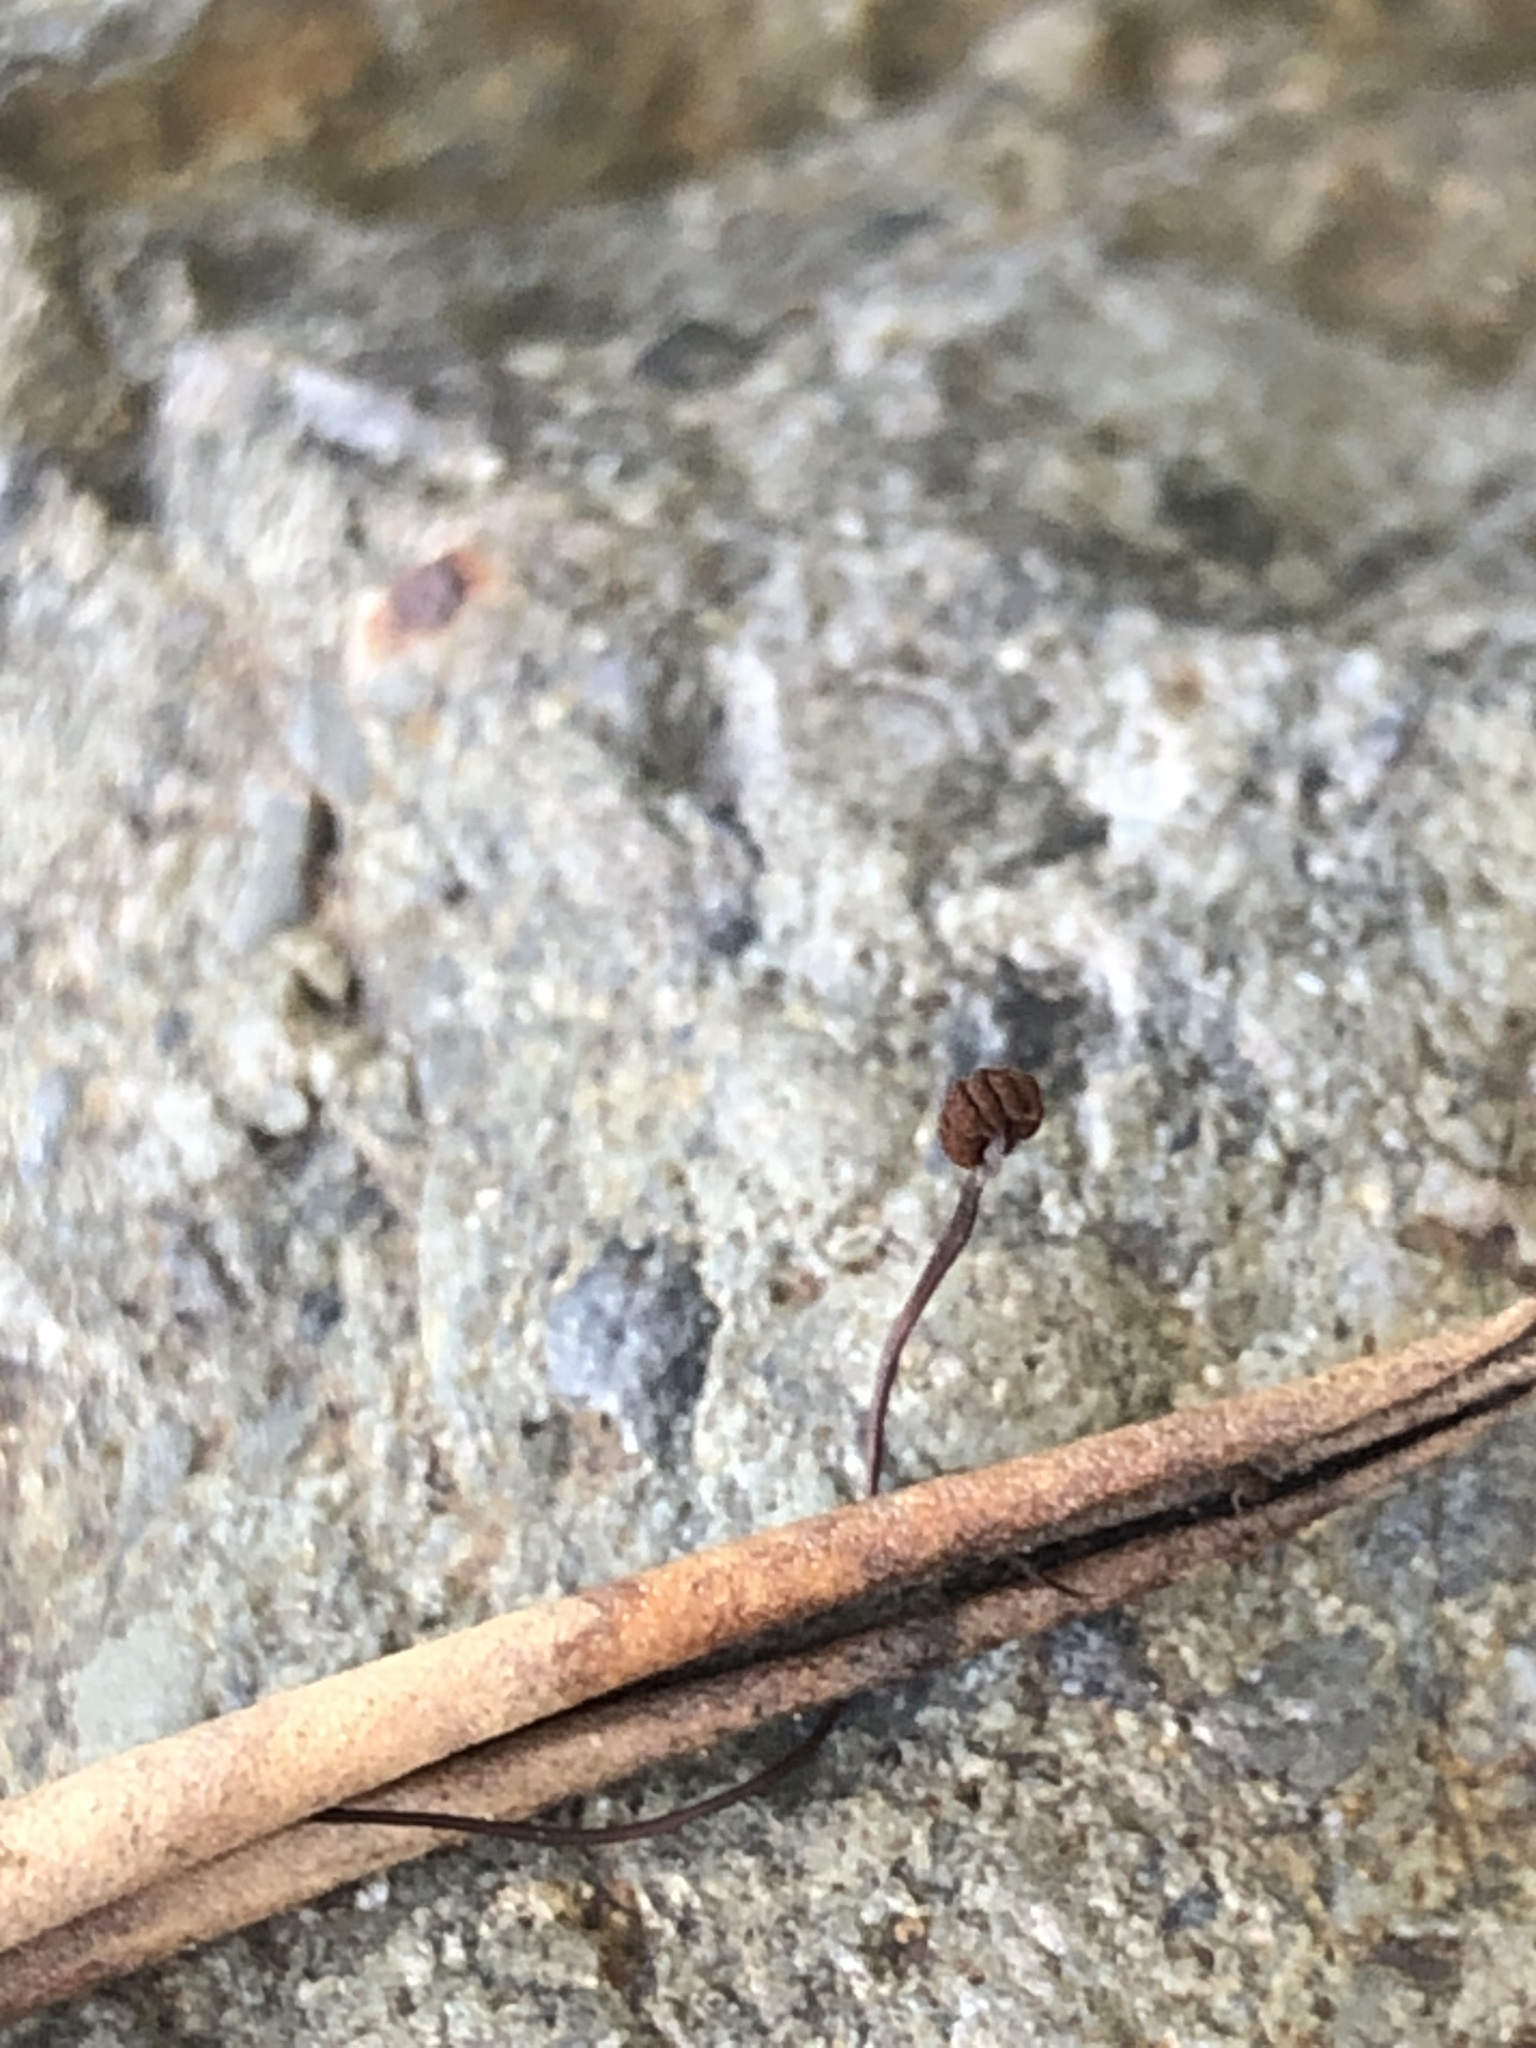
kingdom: Fungi
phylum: Basidiomycota
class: Agaricomycetes
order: Agaricales
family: Physalacriaceae
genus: Cryptomarasmius
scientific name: Cryptomarasmius corbariensis
